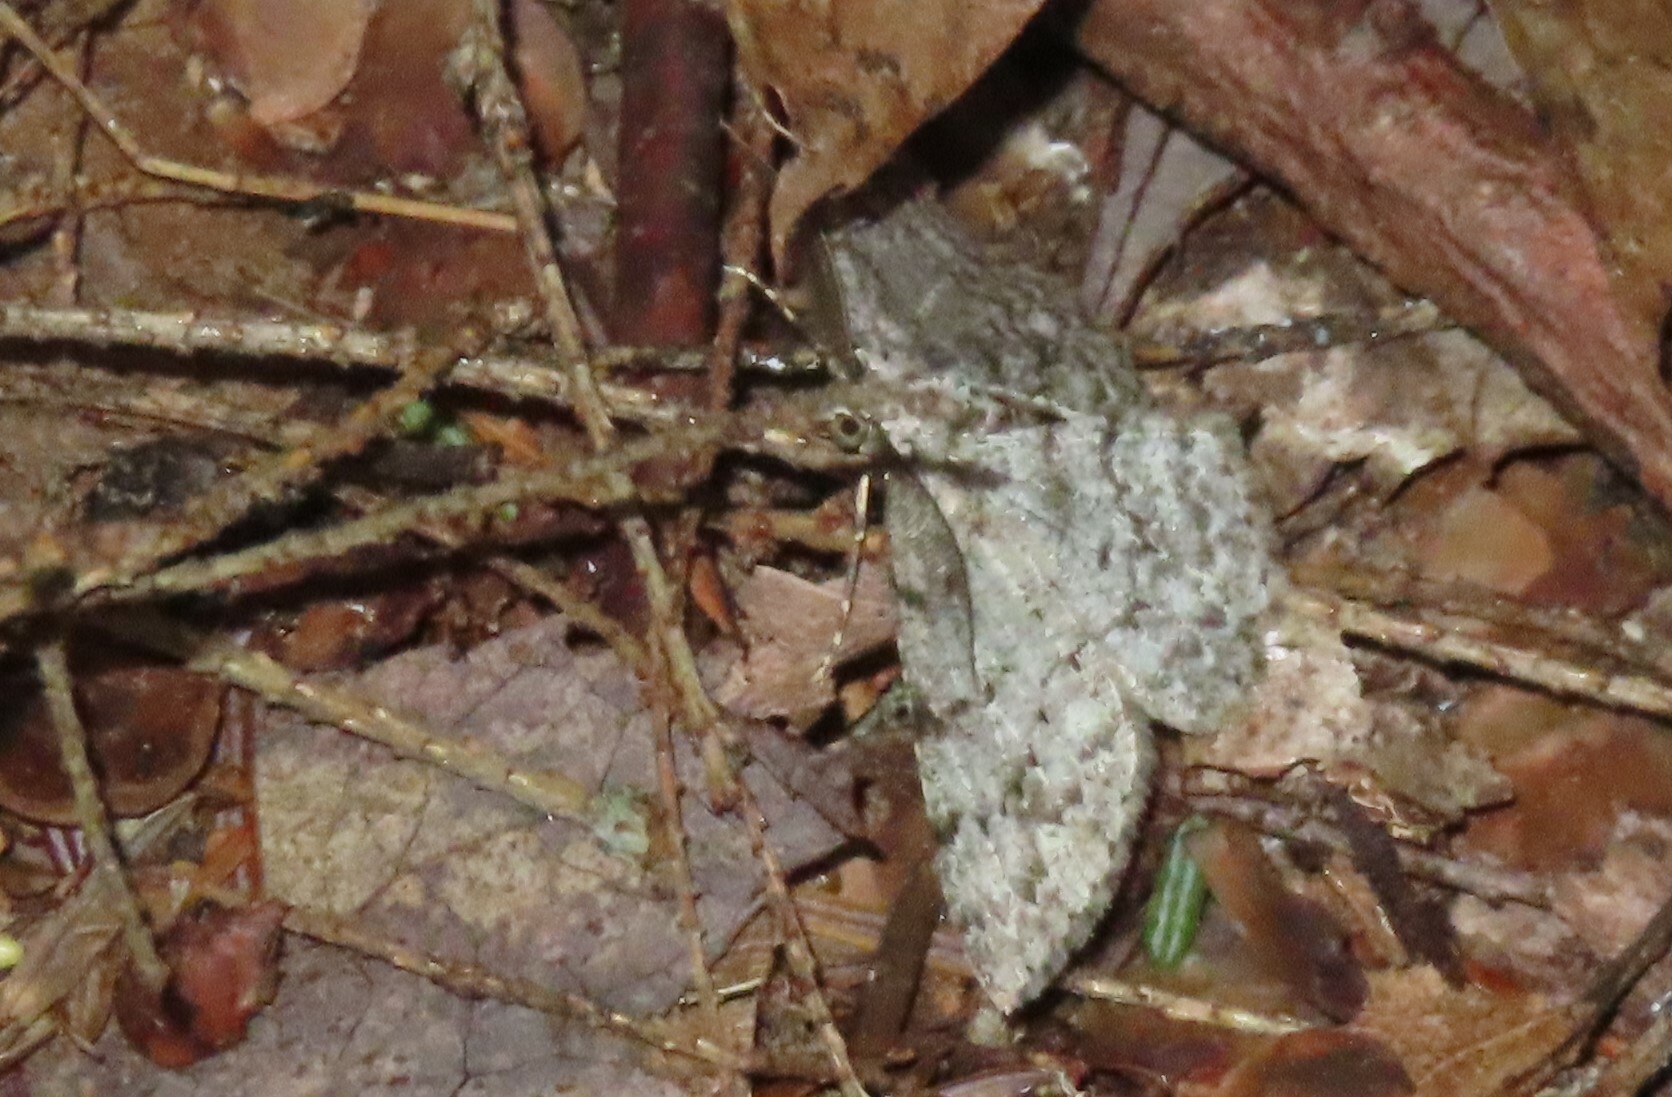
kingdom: Animalia
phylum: Arthropoda
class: Insecta
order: Lepidoptera
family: Geometridae
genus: Protoboarmia
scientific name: Protoboarmia porcelaria
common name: Porcelain gray
